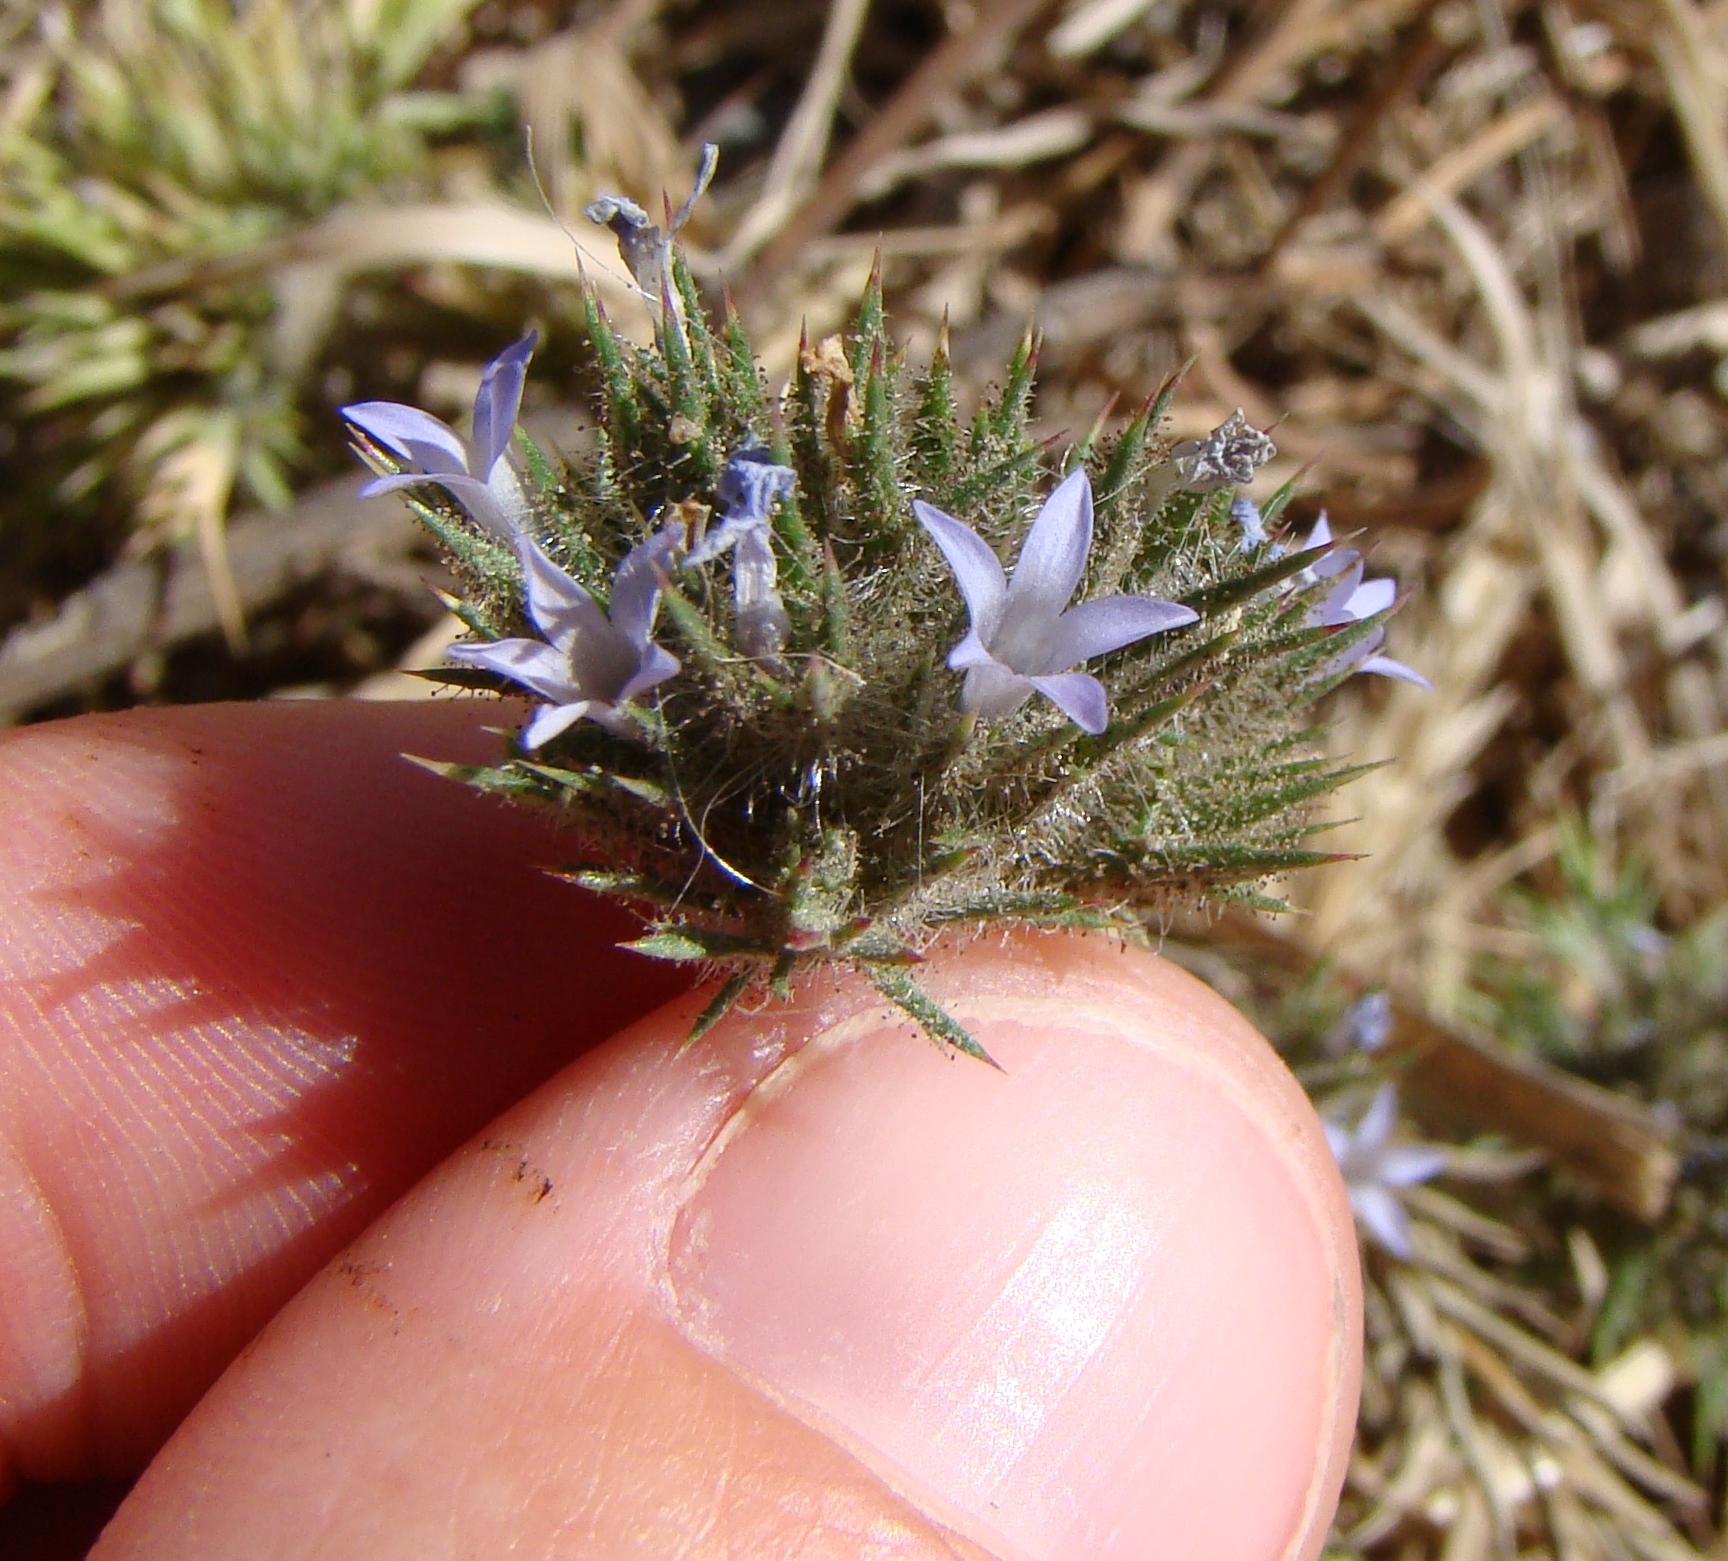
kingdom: Plantae
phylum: Tracheophyta
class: Magnoliopsida
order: Ericales
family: Polemoniaceae
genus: Navarretia
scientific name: Navarretia squarrosa
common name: Skunkweed
